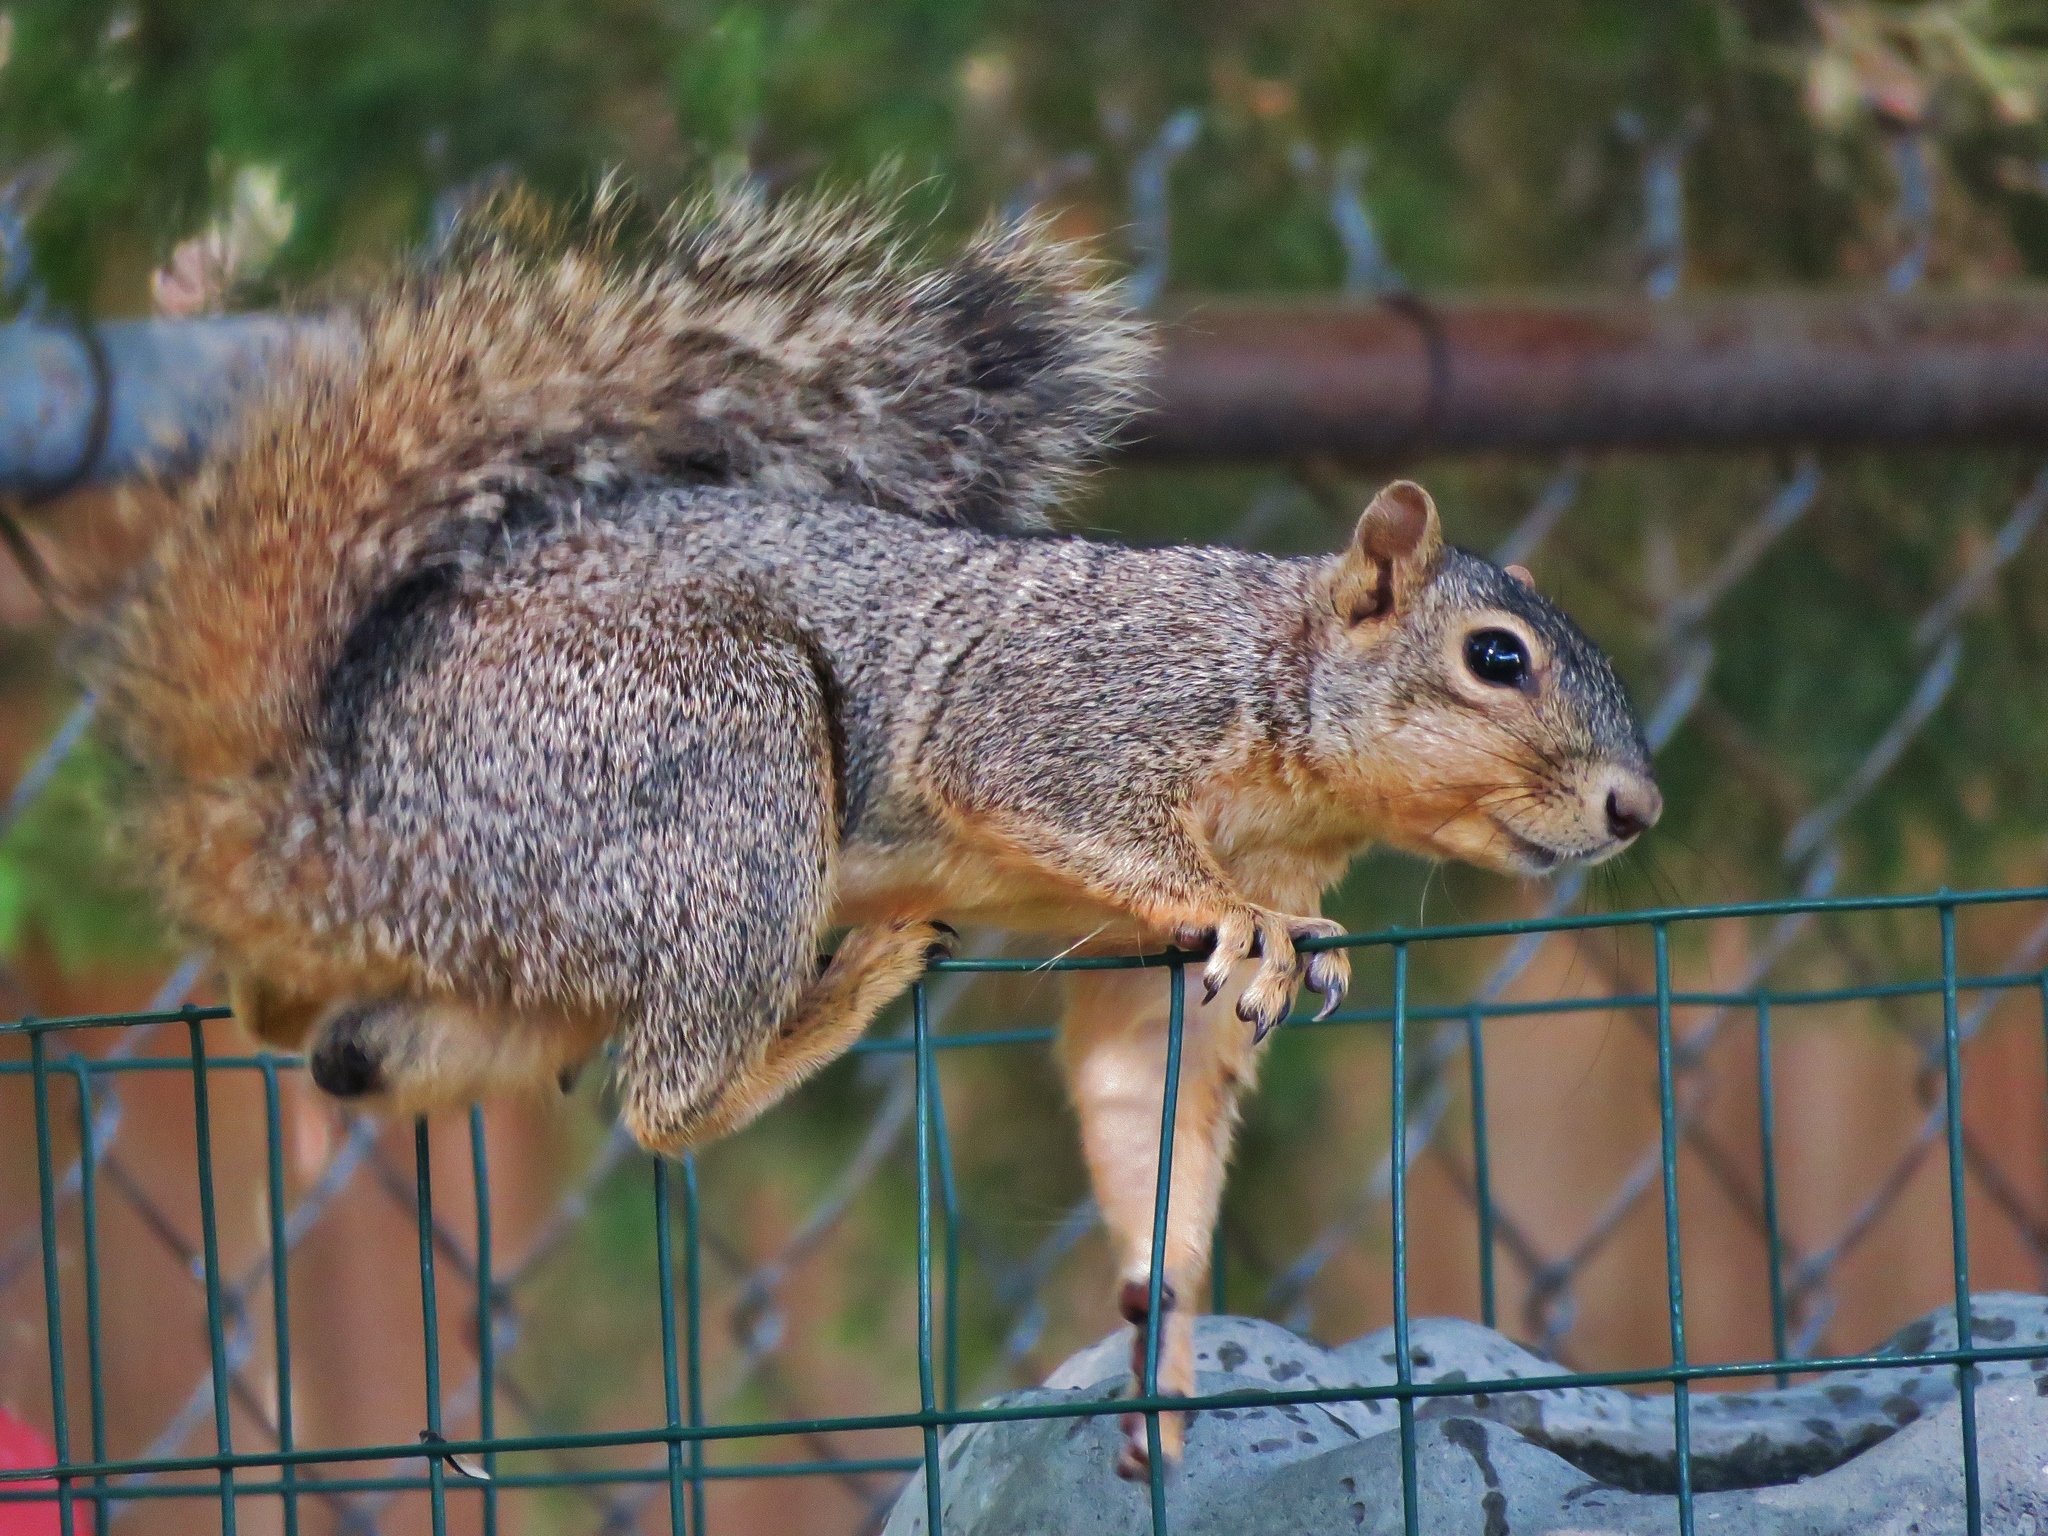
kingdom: Animalia
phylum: Chordata
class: Mammalia
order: Rodentia
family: Sciuridae
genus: Sciurus
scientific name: Sciurus niger
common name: Fox squirrel
